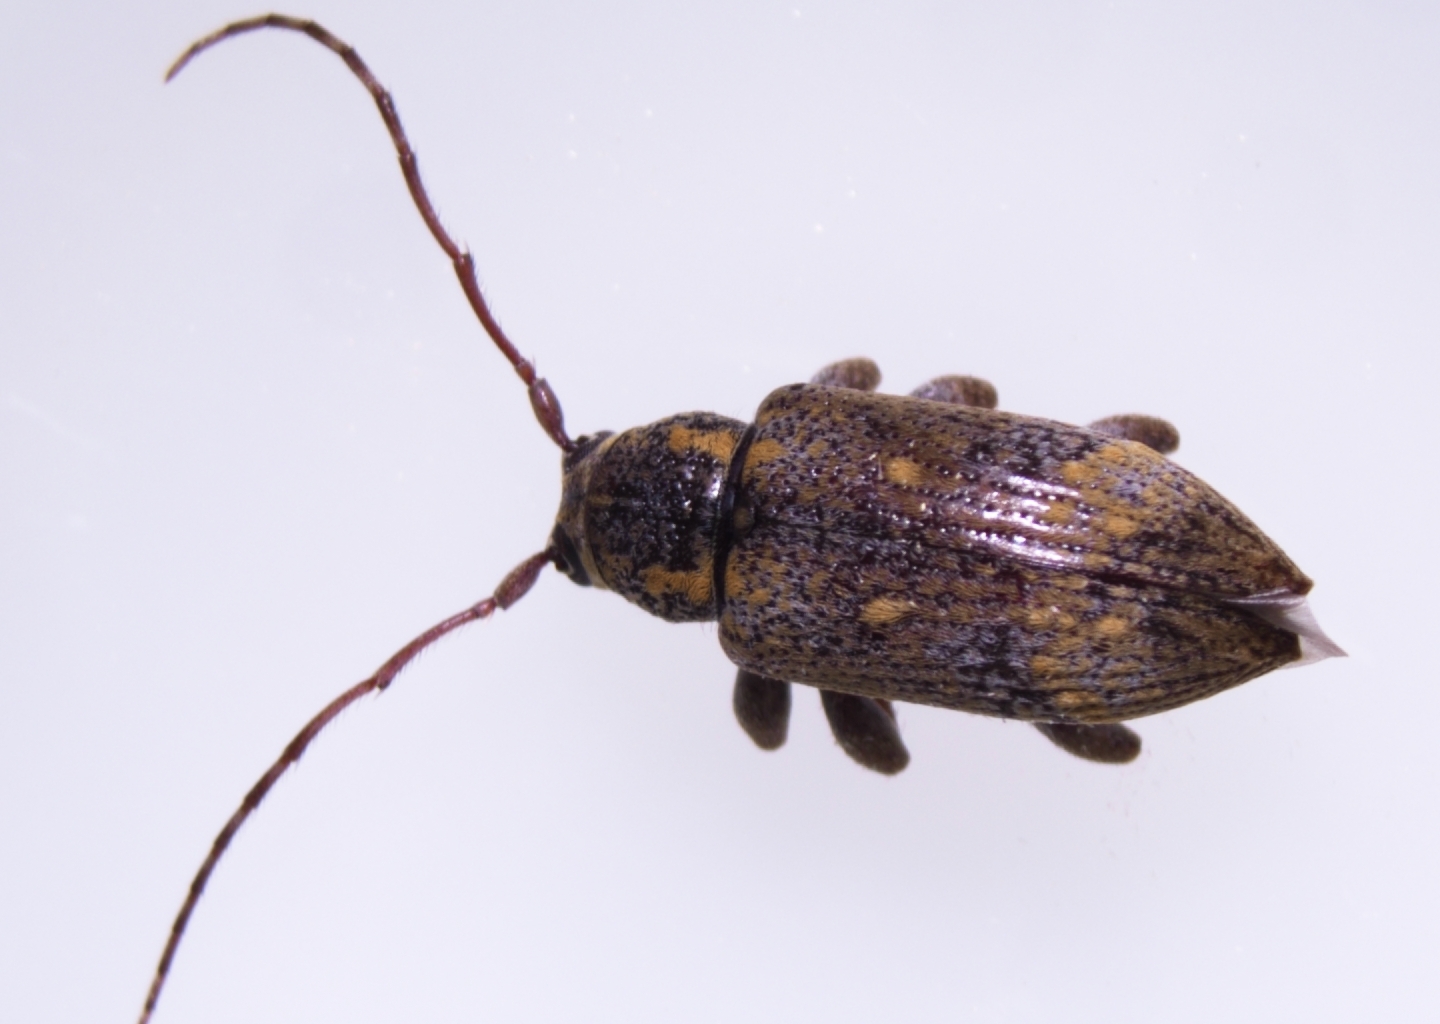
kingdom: Animalia
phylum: Arthropoda
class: Insecta
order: Coleoptera
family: Cerambycidae
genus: Oopsis
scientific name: Oopsis nutator
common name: Oopsis long-horned beetle
